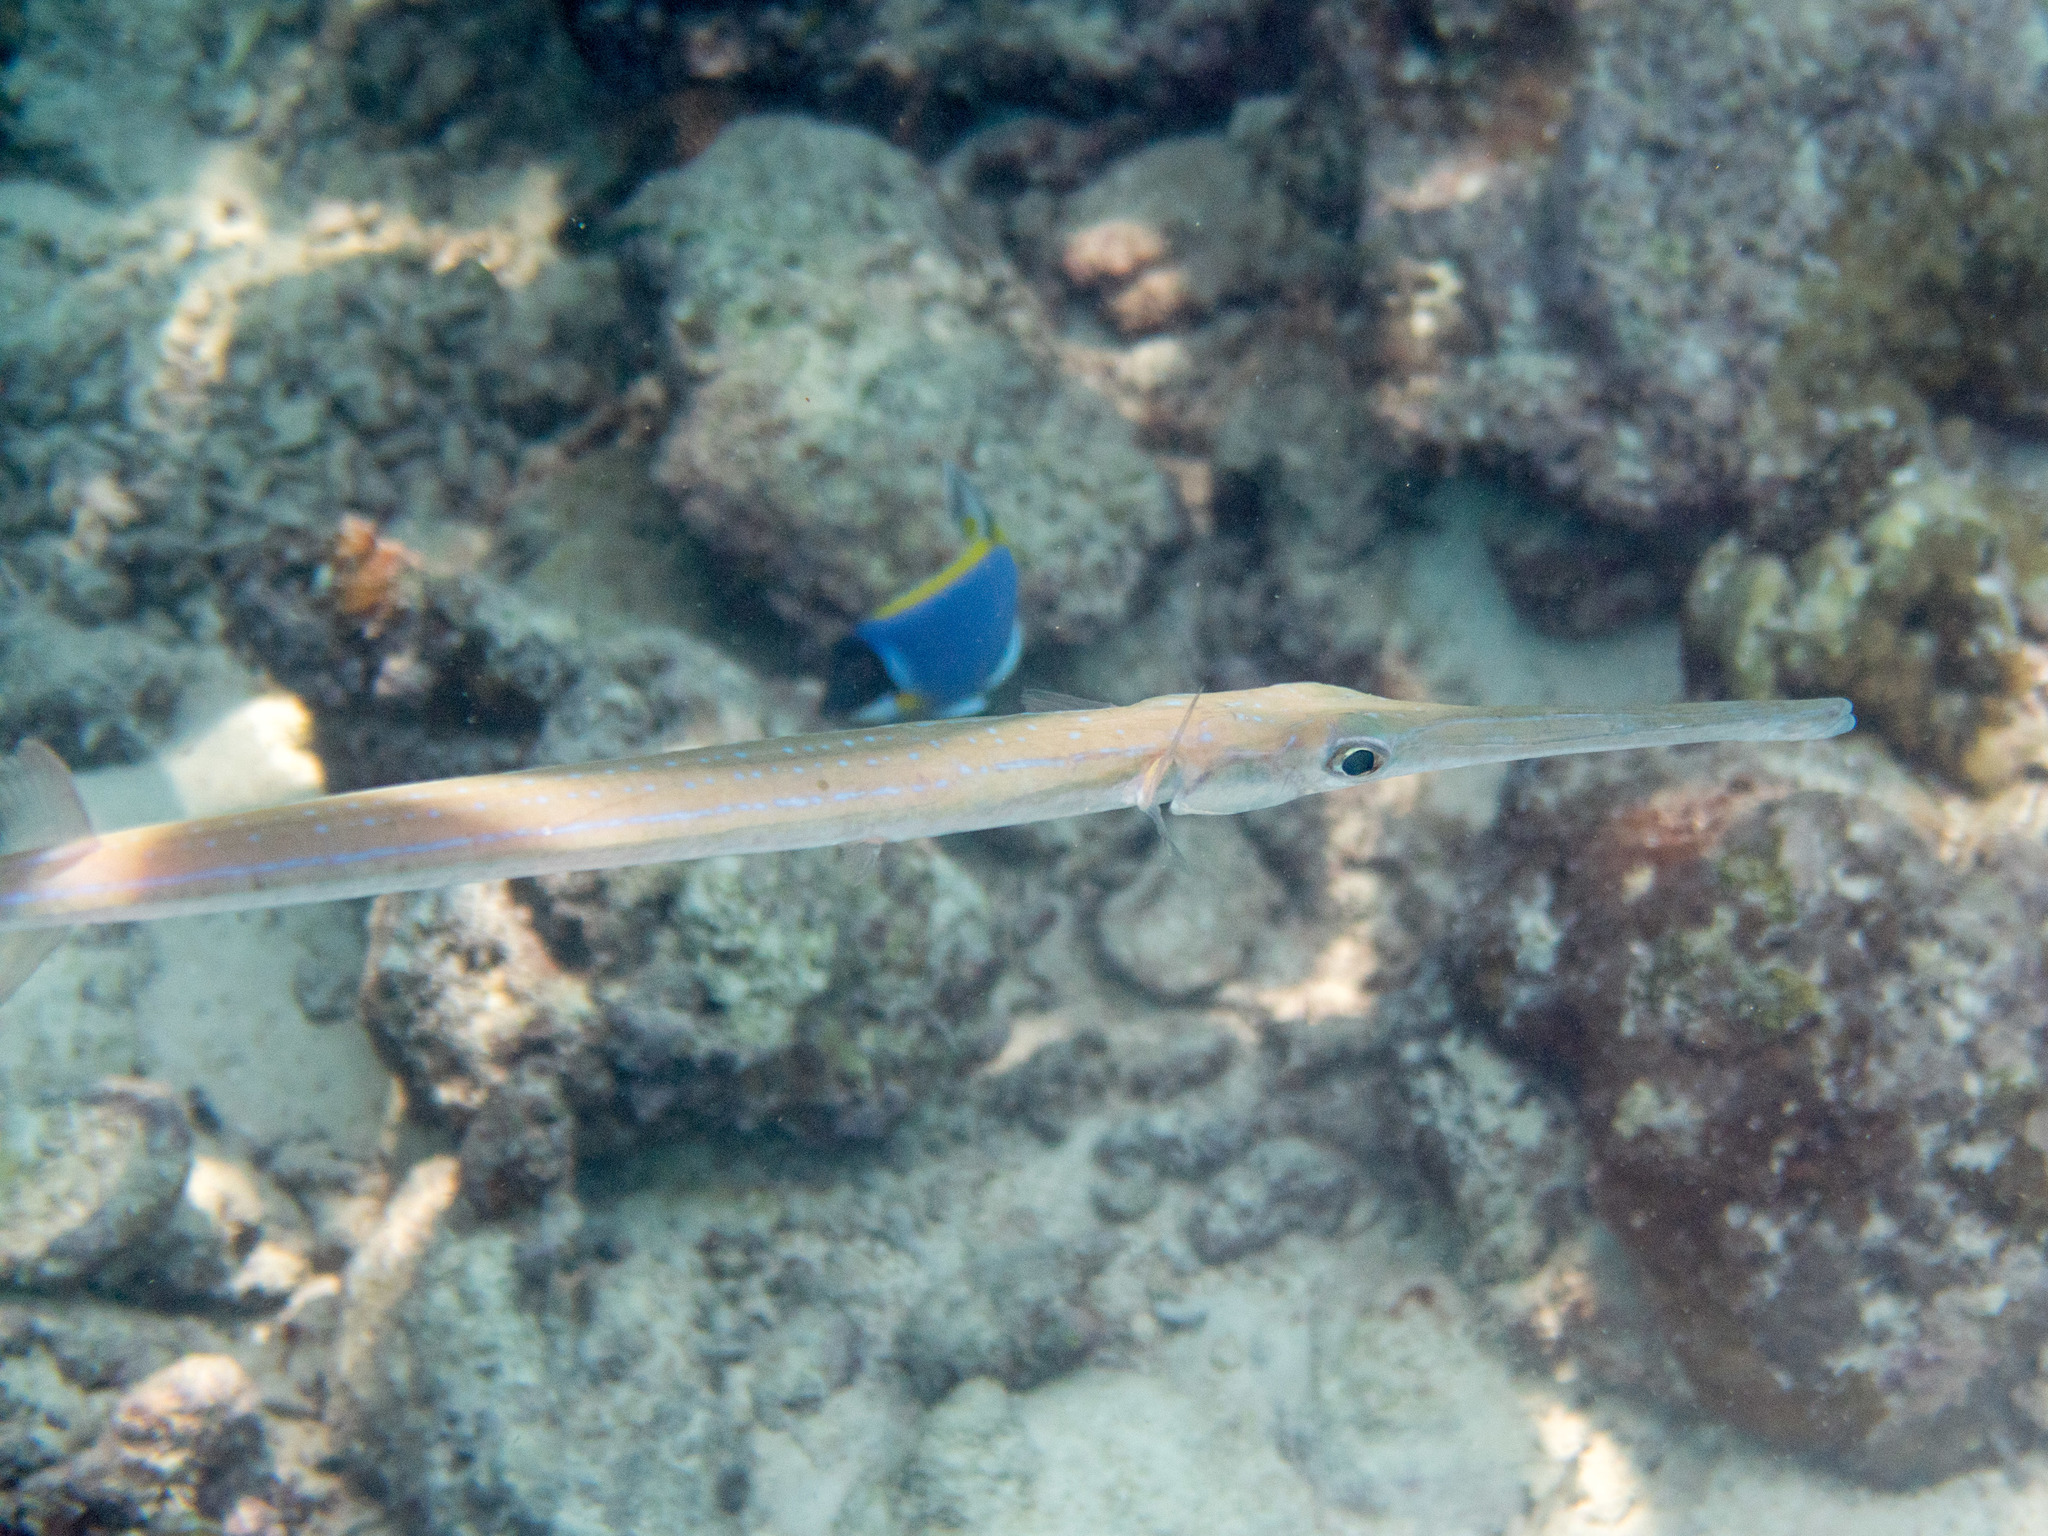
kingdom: Animalia
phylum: Chordata
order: Syngnathiformes
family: Fistulariidae
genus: Fistularia
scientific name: Fistularia commersonii
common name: Bluespotted cornetfish
